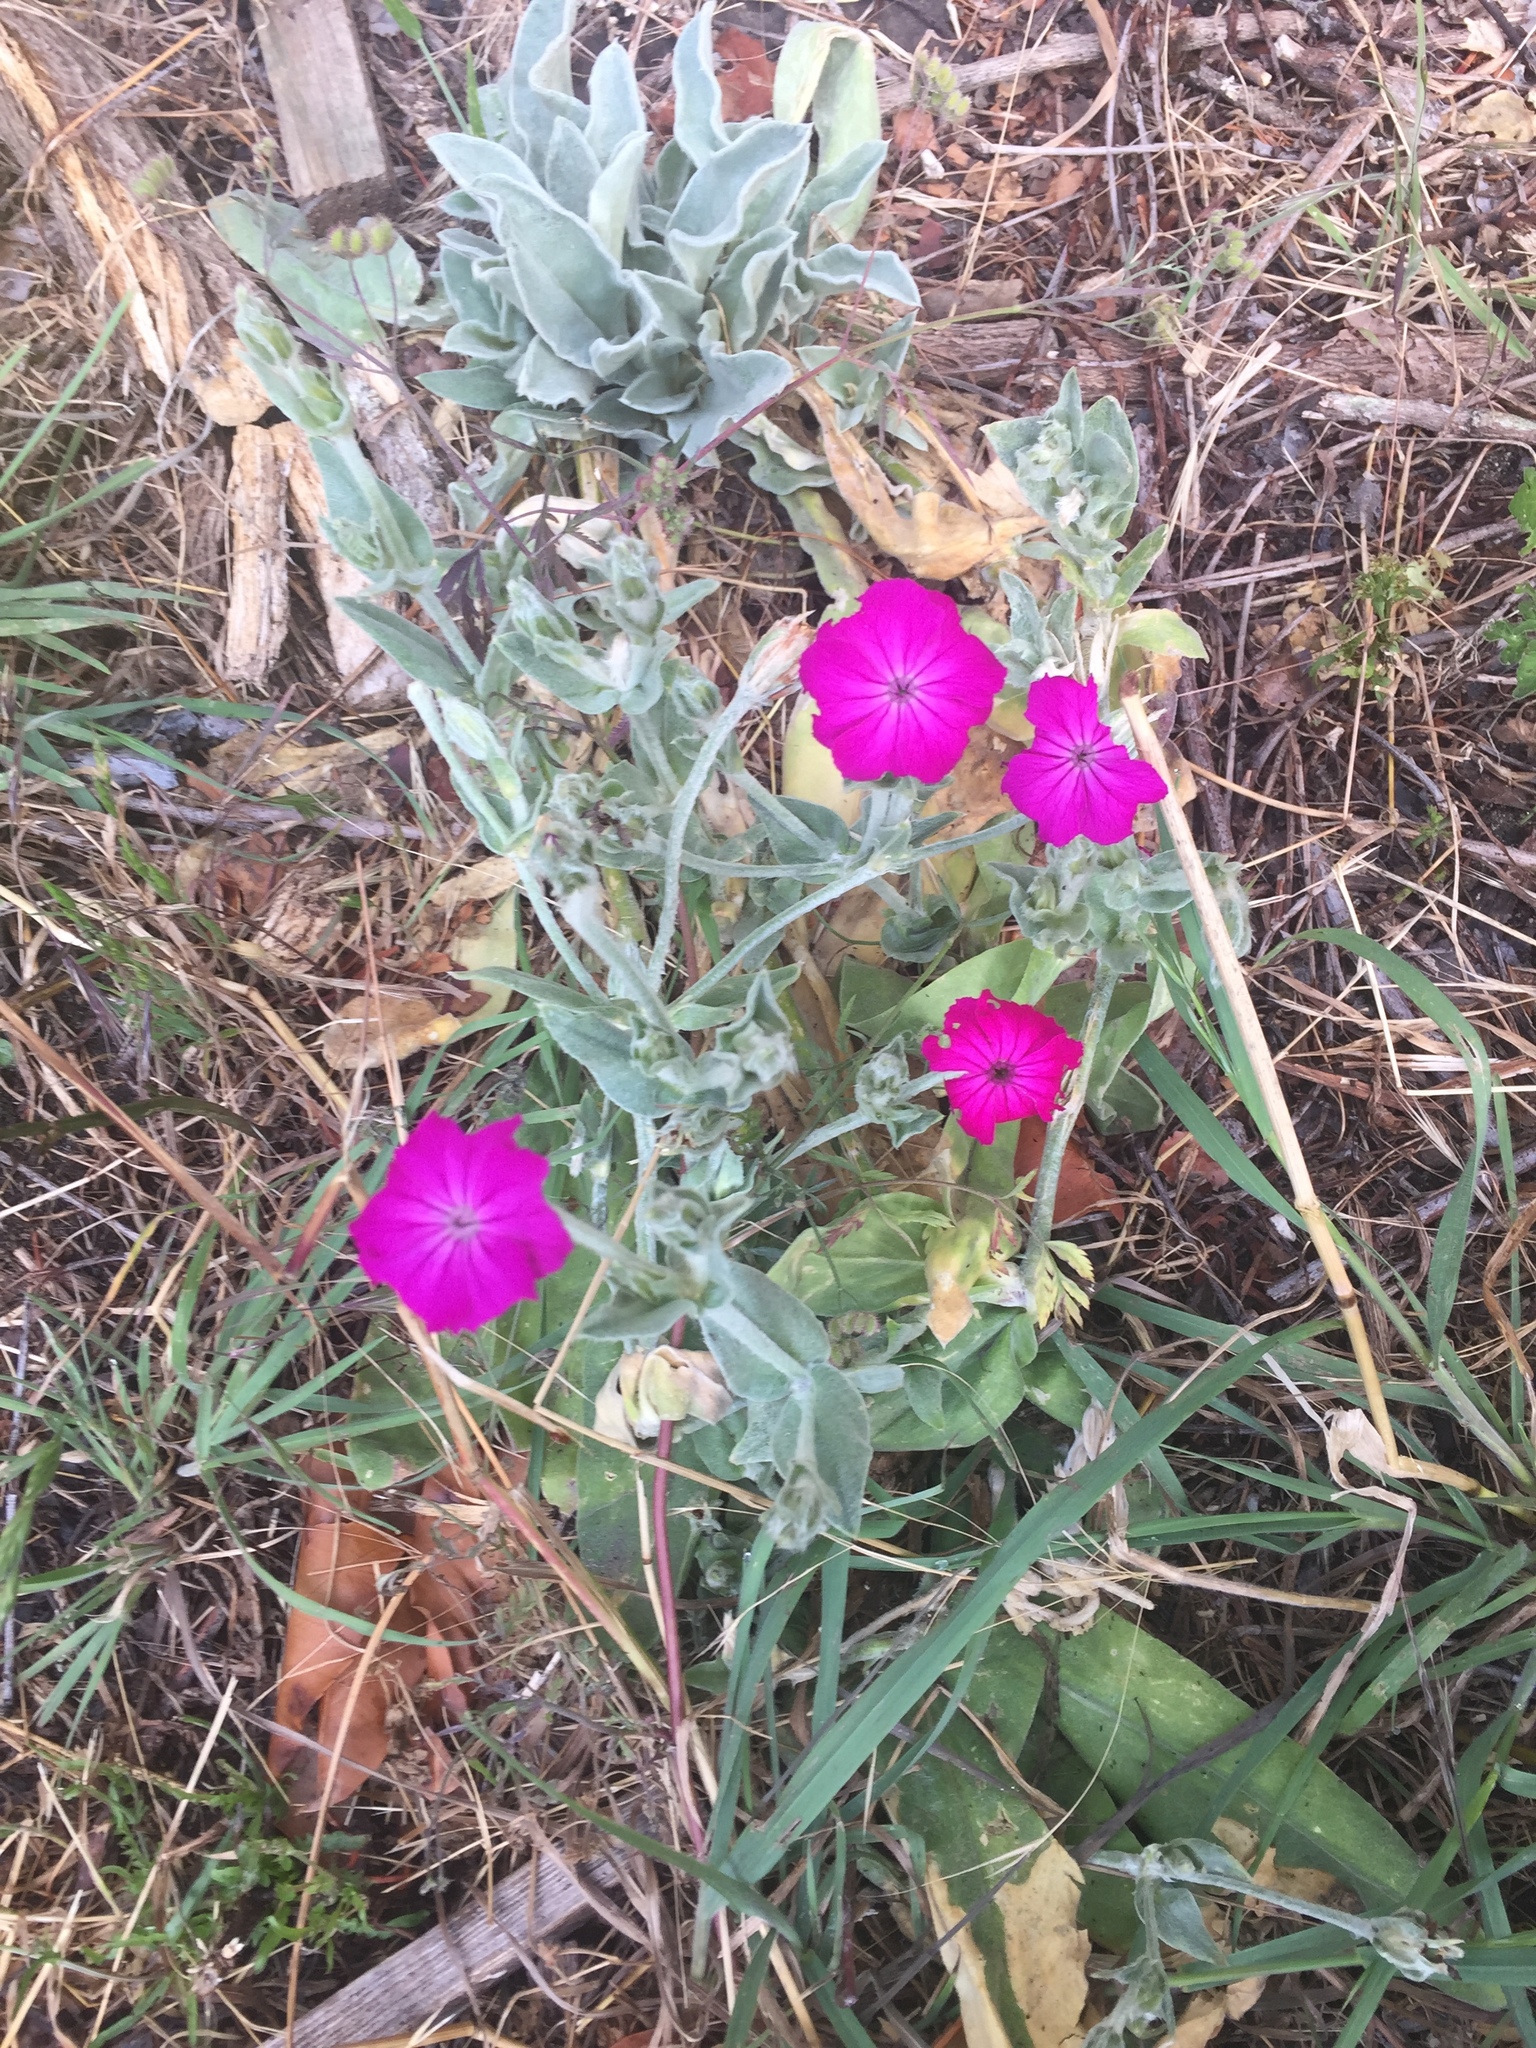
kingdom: Plantae
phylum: Tracheophyta
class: Magnoliopsida
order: Caryophyllales
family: Caryophyllaceae
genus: Silene
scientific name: Silene coronaria
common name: Rose campion
